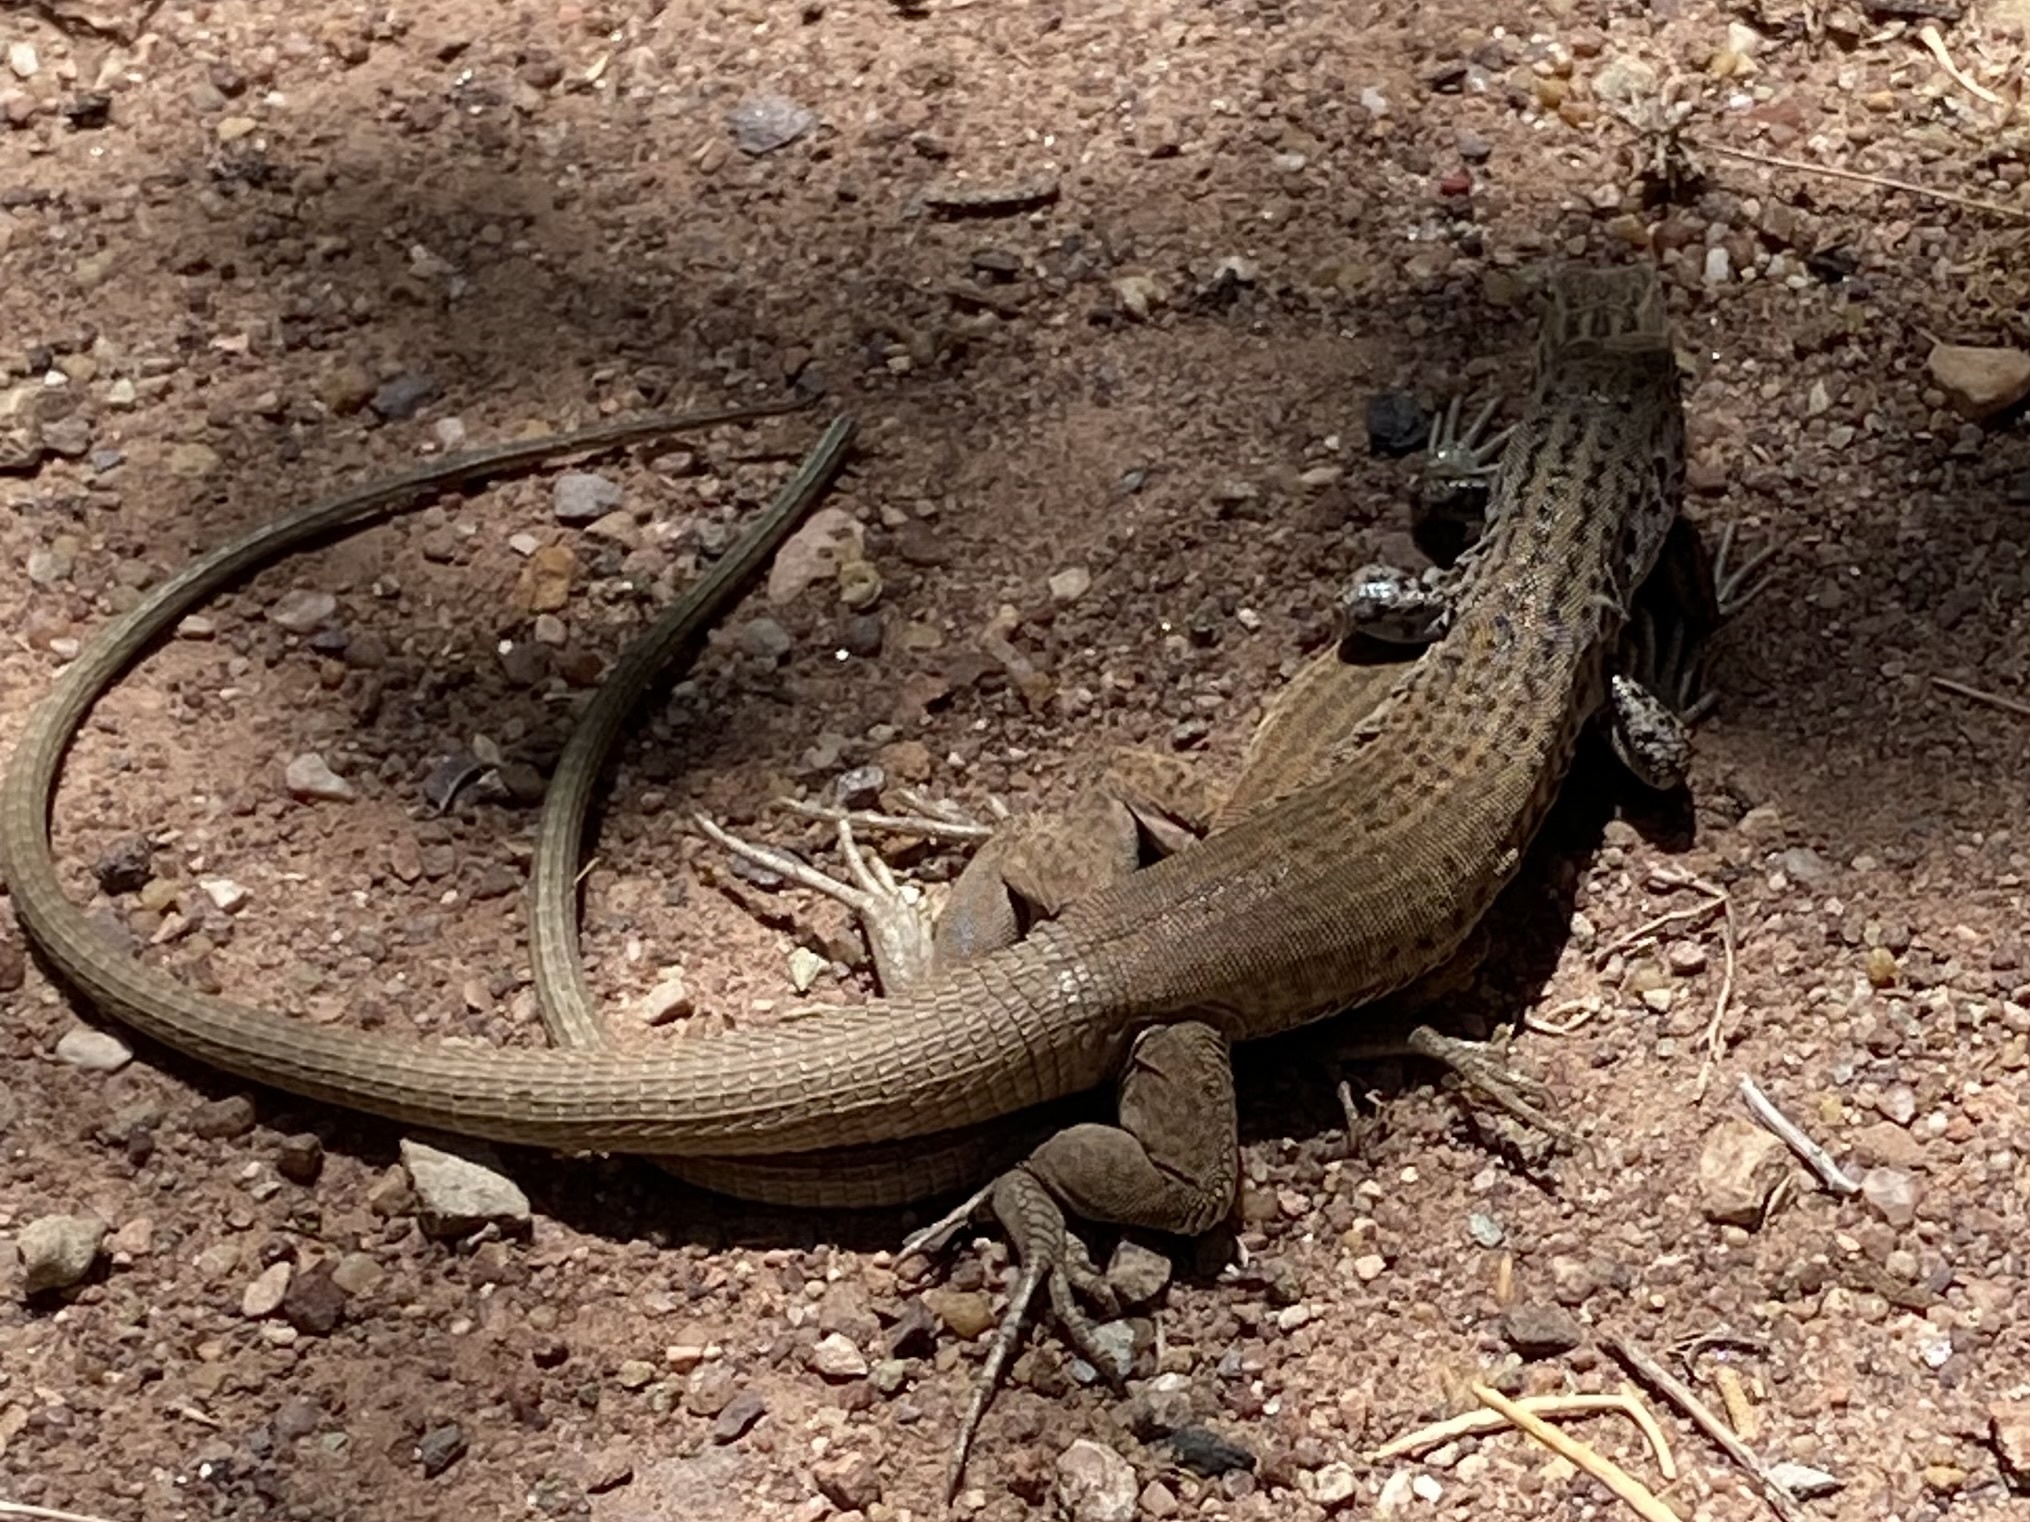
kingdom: Animalia
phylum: Chordata
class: Squamata
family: Teiidae
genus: Aspidoscelis
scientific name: Aspidoscelis tigris
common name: Tiger whiptail
